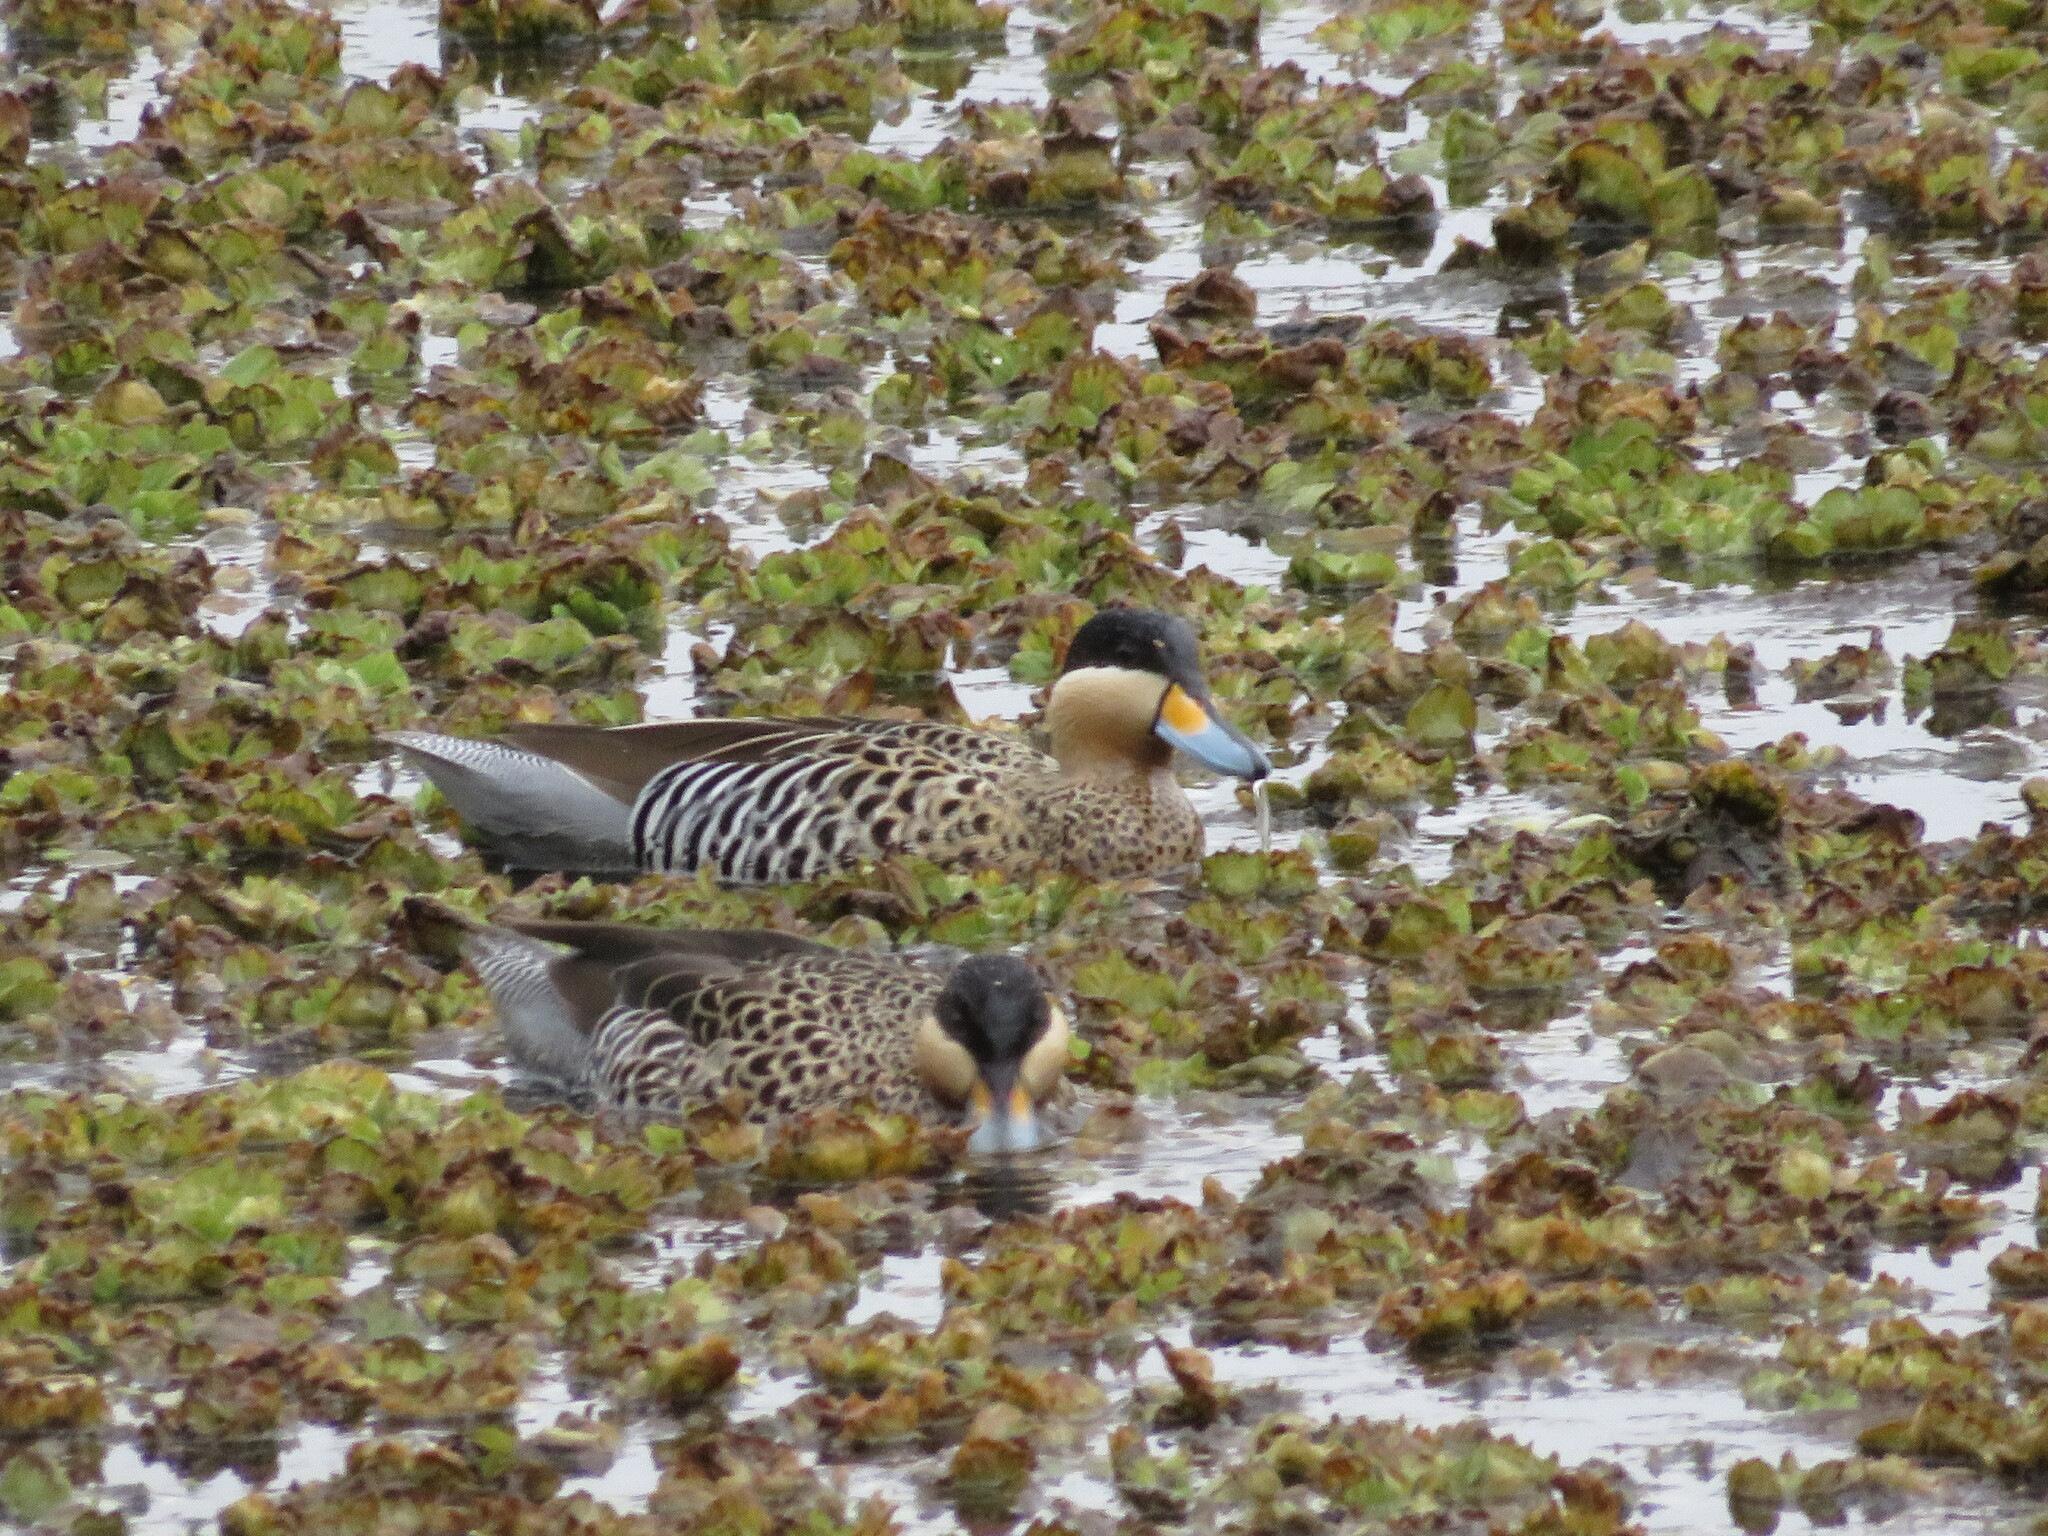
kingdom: Animalia
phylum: Chordata
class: Aves
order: Anseriformes
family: Anatidae
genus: Spatula
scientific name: Spatula versicolor
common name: Silver teal
